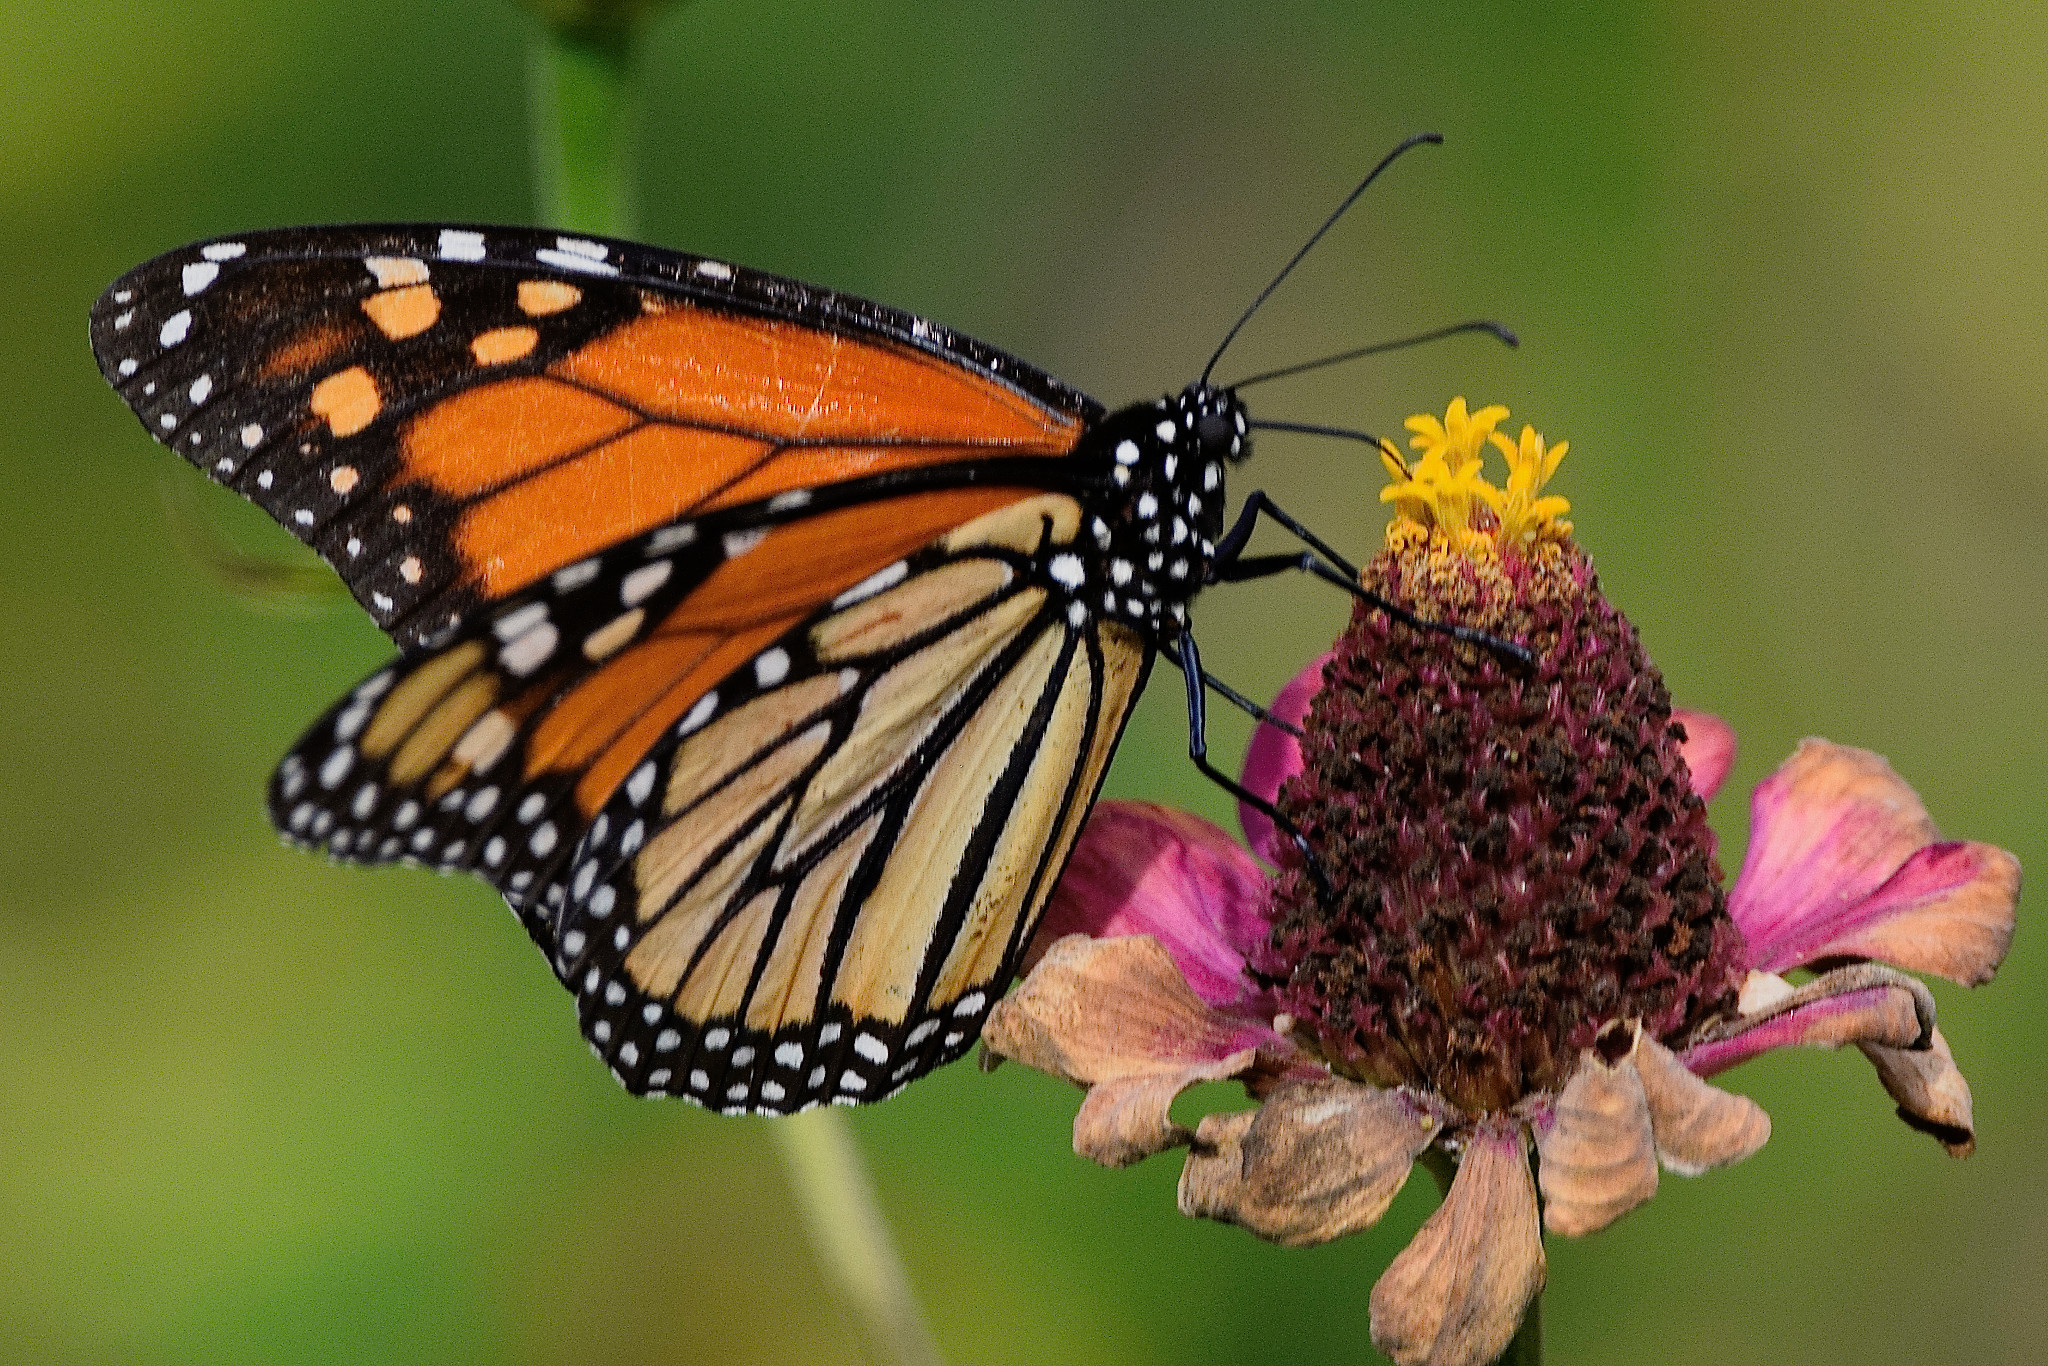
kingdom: Animalia
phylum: Arthropoda
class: Insecta
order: Lepidoptera
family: Nymphalidae
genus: Danaus
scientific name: Danaus plexippus
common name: Monarch
